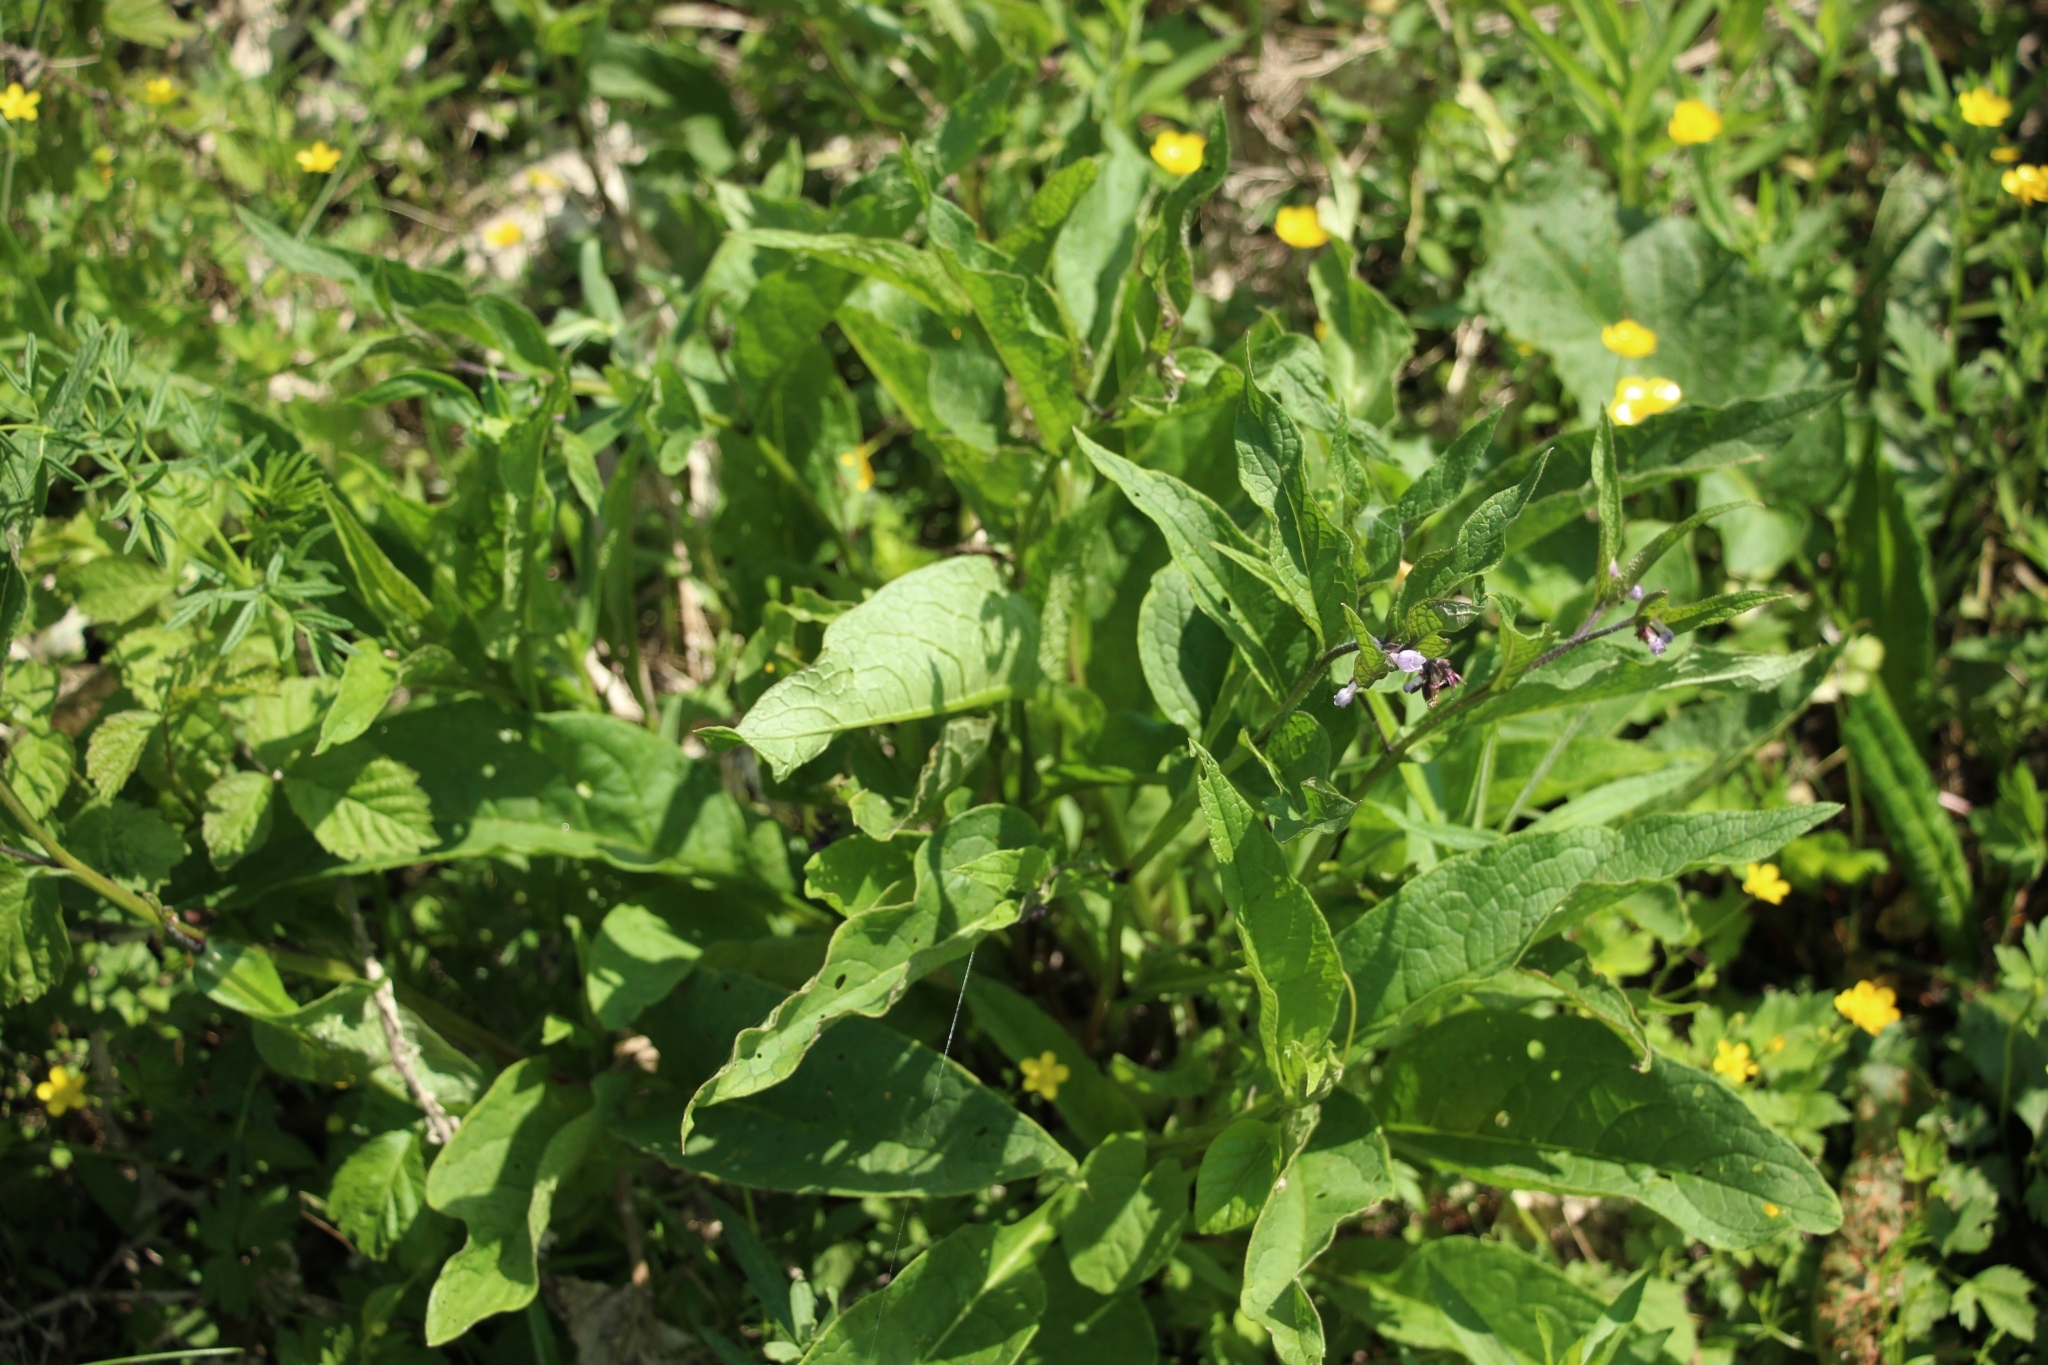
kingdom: Plantae
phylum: Tracheophyta
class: Magnoliopsida
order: Boraginales
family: Boraginaceae
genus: Symphytum
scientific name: Symphytum officinale
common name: Common comfrey
